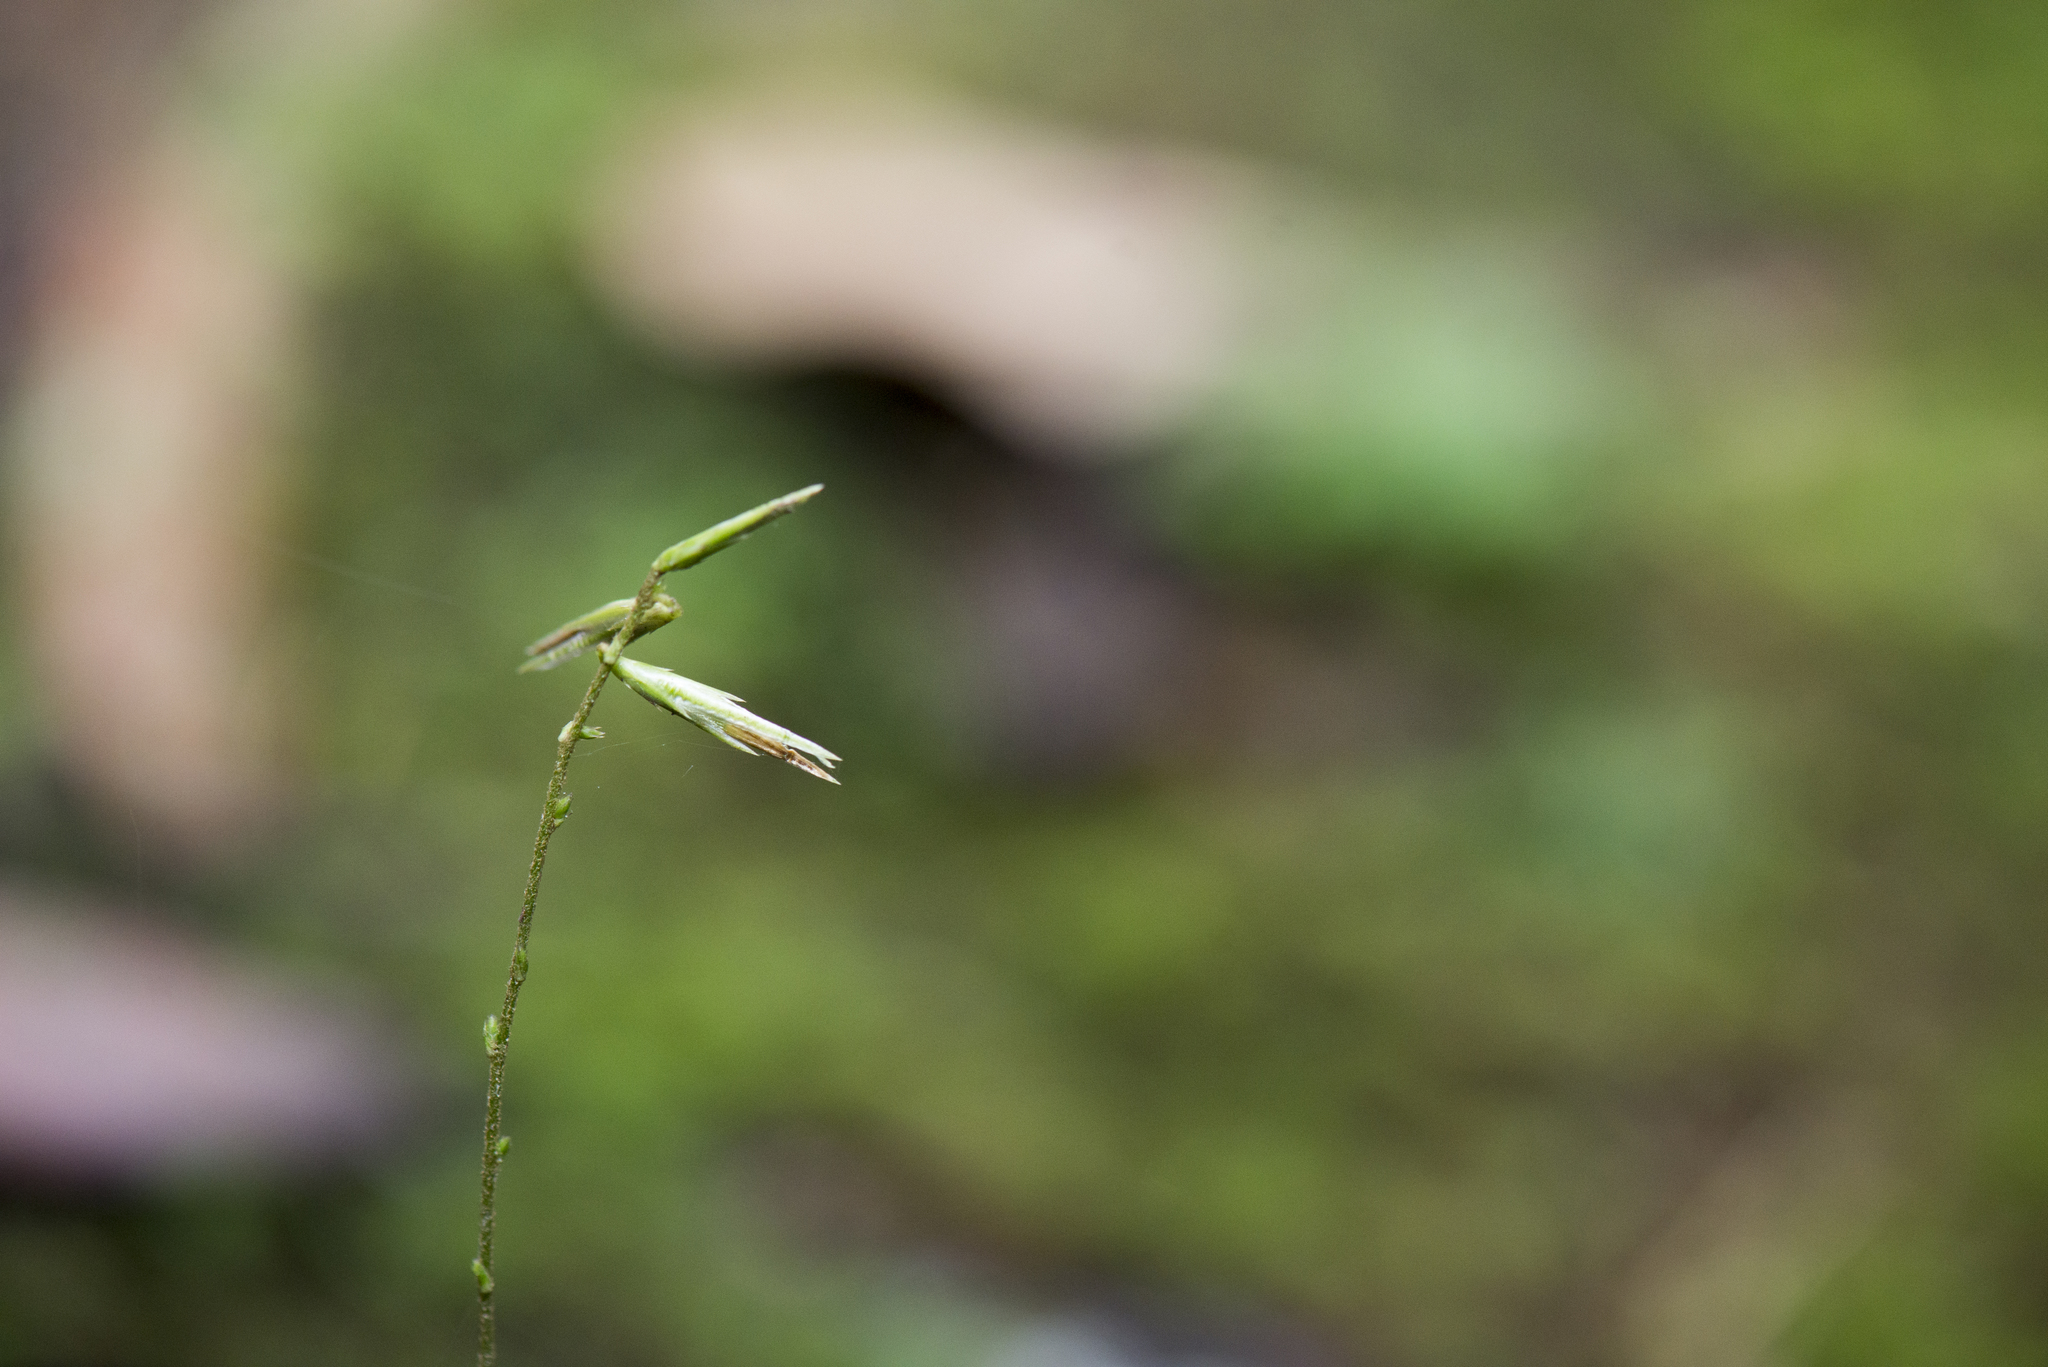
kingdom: Plantae
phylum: Tracheophyta
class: Magnoliopsida
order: Asterales
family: Asteraceae
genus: Ainsliaea
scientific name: Ainsliaea henryi
